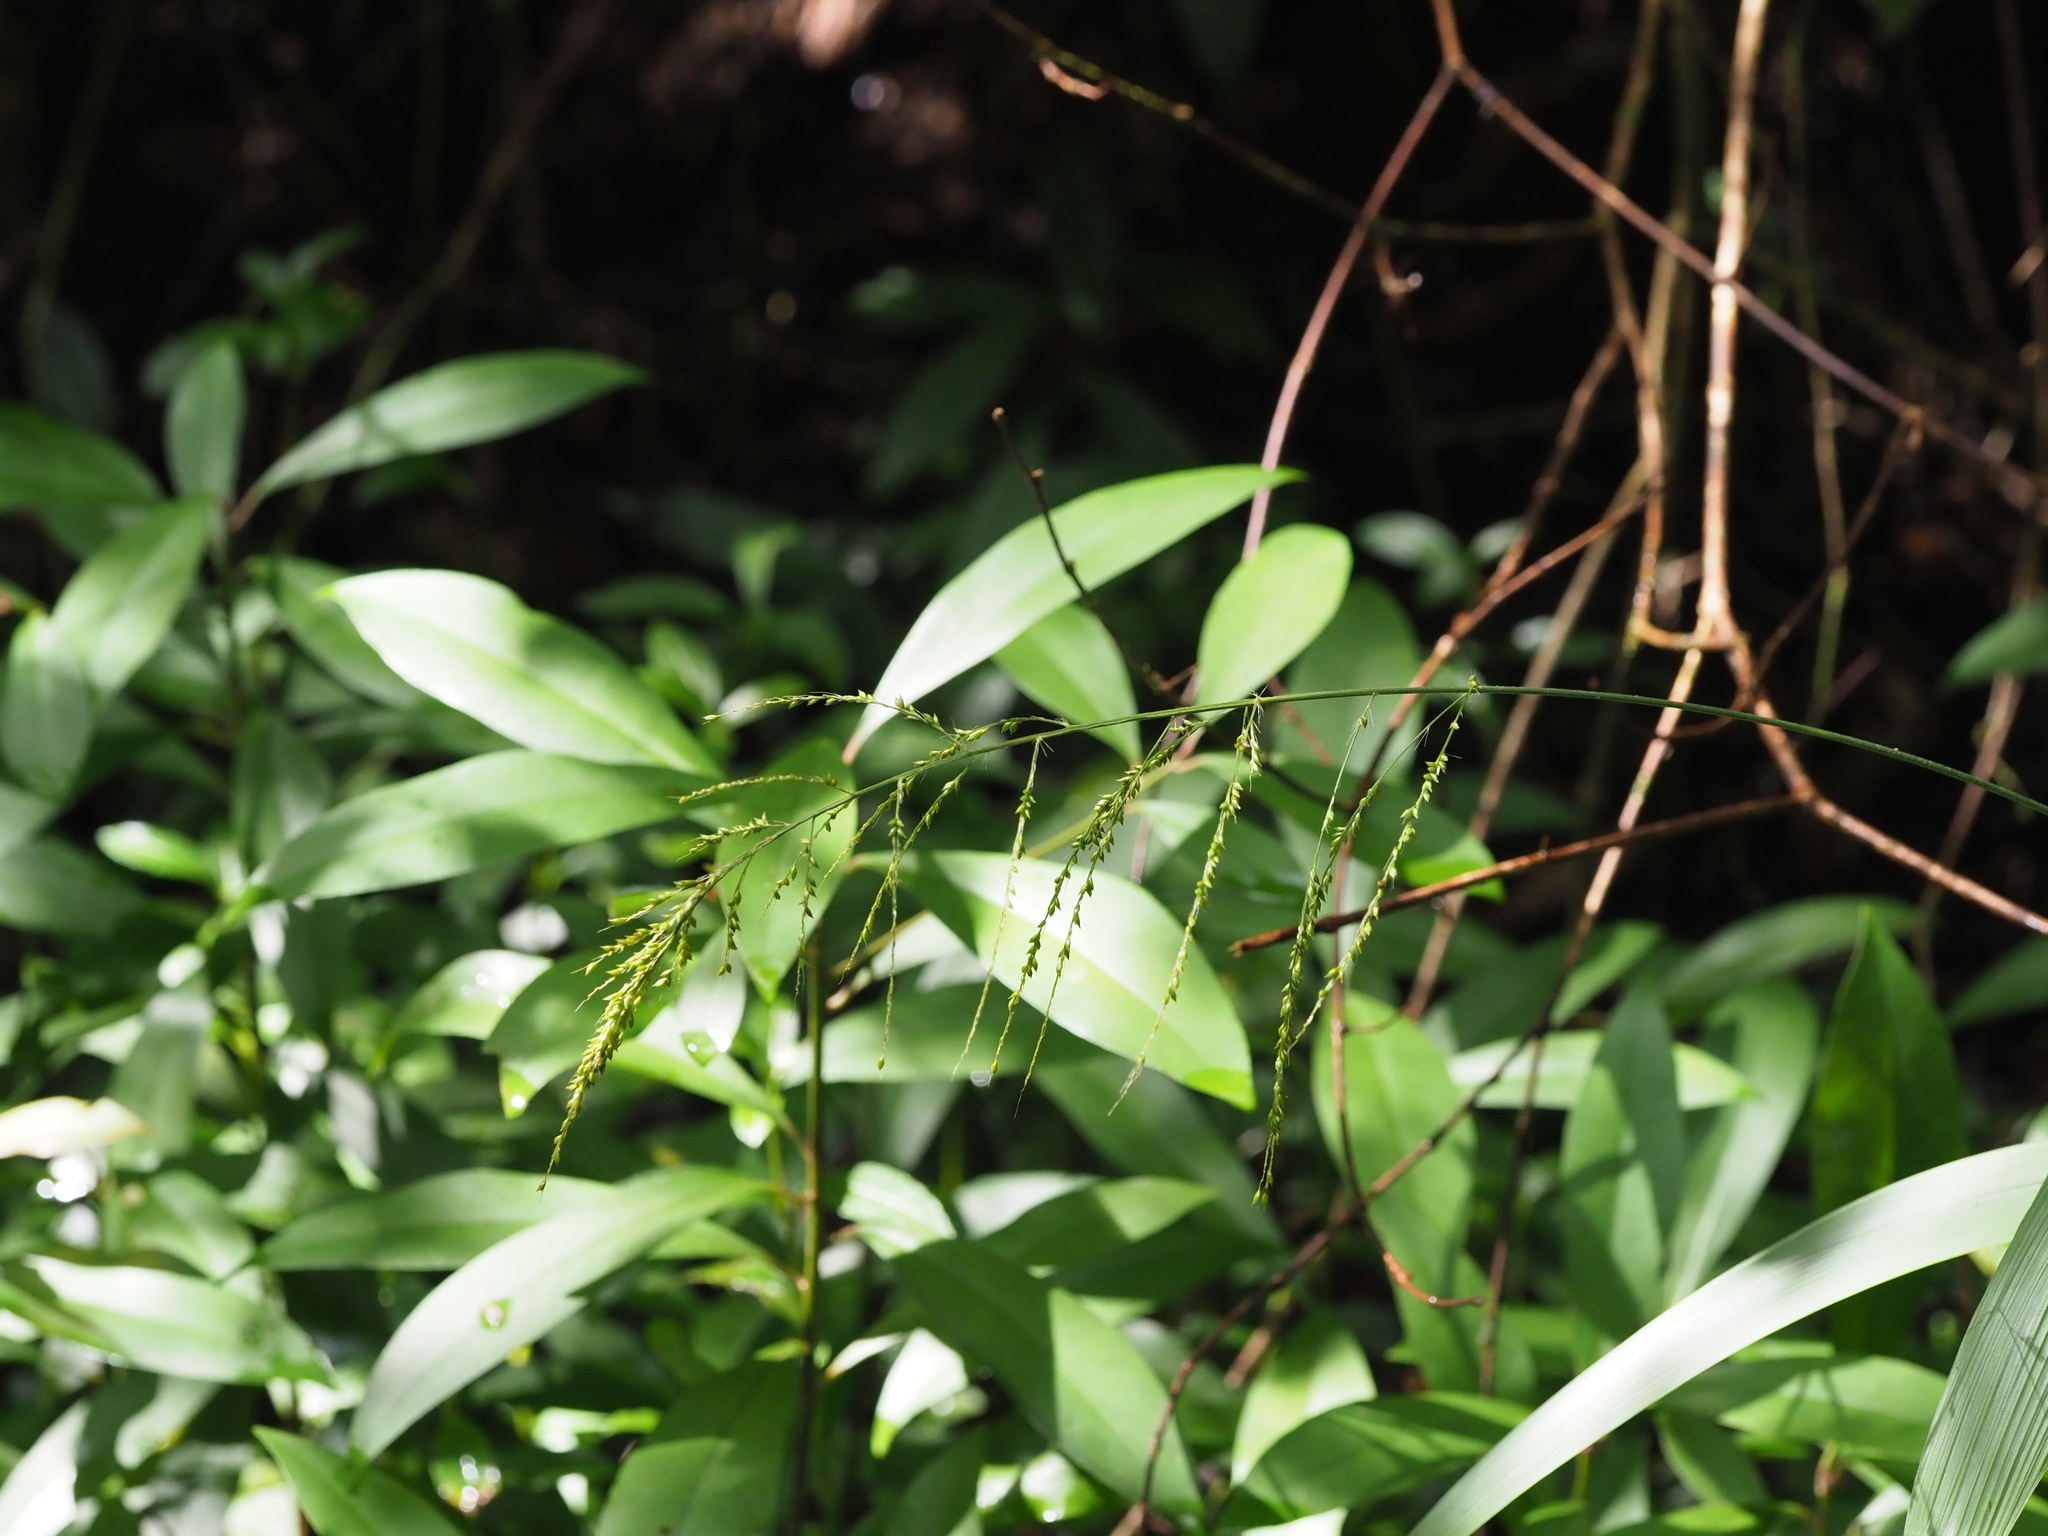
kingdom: Plantae
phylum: Tracheophyta
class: Liliopsida
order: Poales
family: Poaceae
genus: Setaria
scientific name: Setaria palmifolia
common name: Broadleaved bristlegrass
